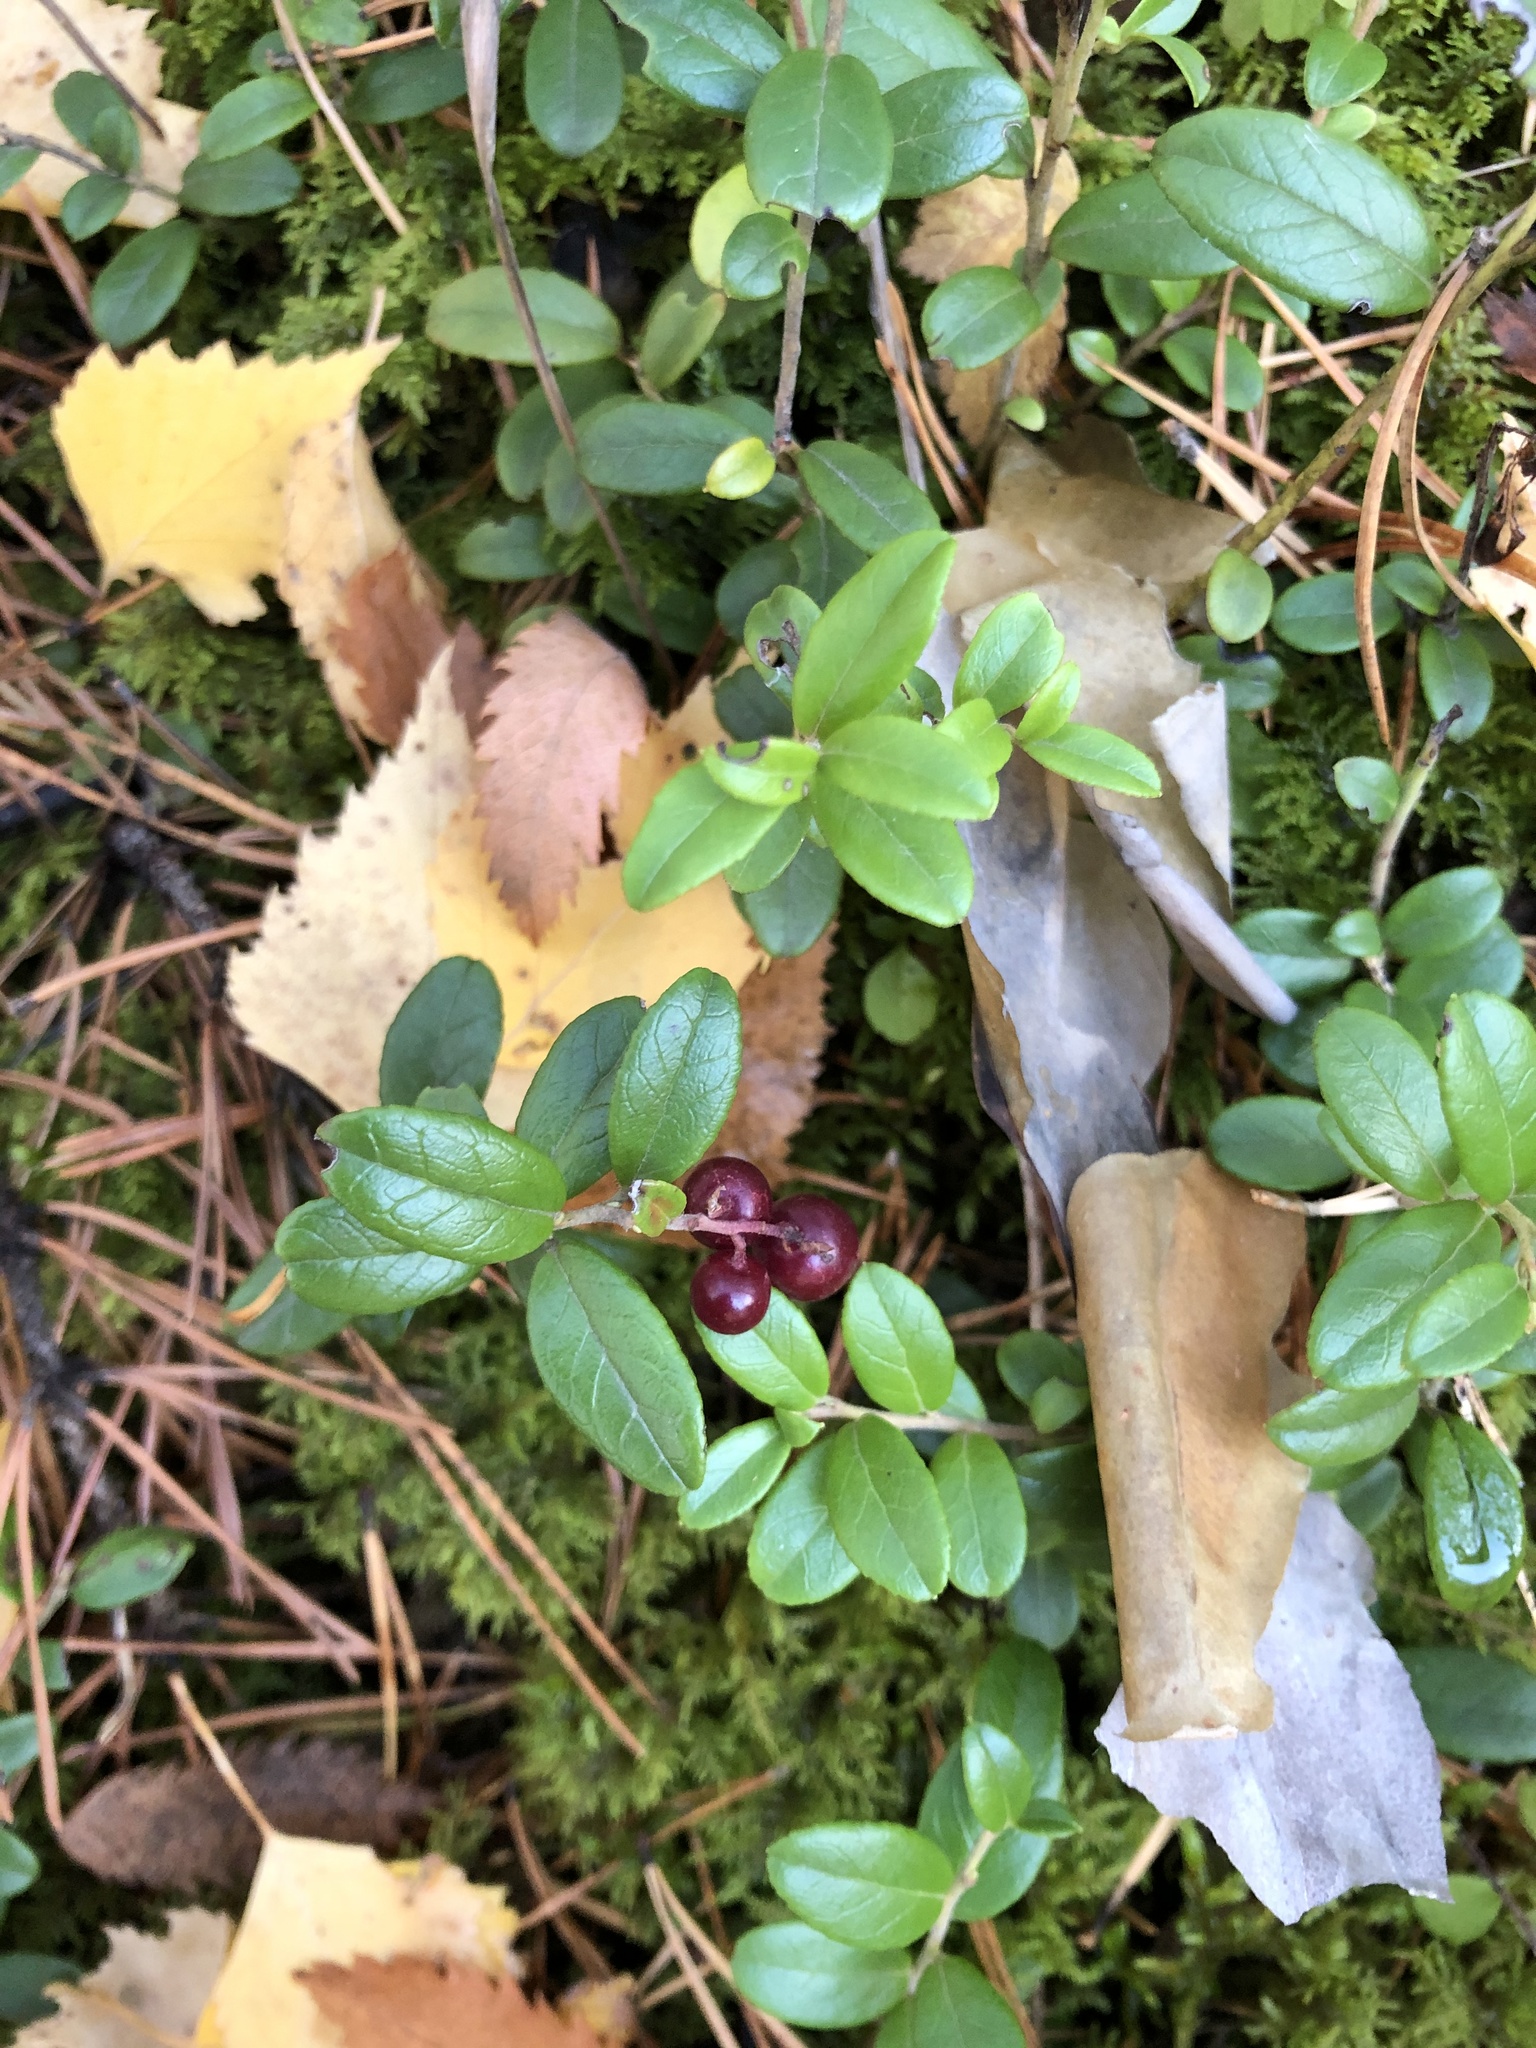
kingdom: Plantae
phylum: Tracheophyta
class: Magnoliopsida
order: Ericales
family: Ericaceae
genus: Vaccinium
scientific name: Vaccinium vitis-idaea
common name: Cowberry
